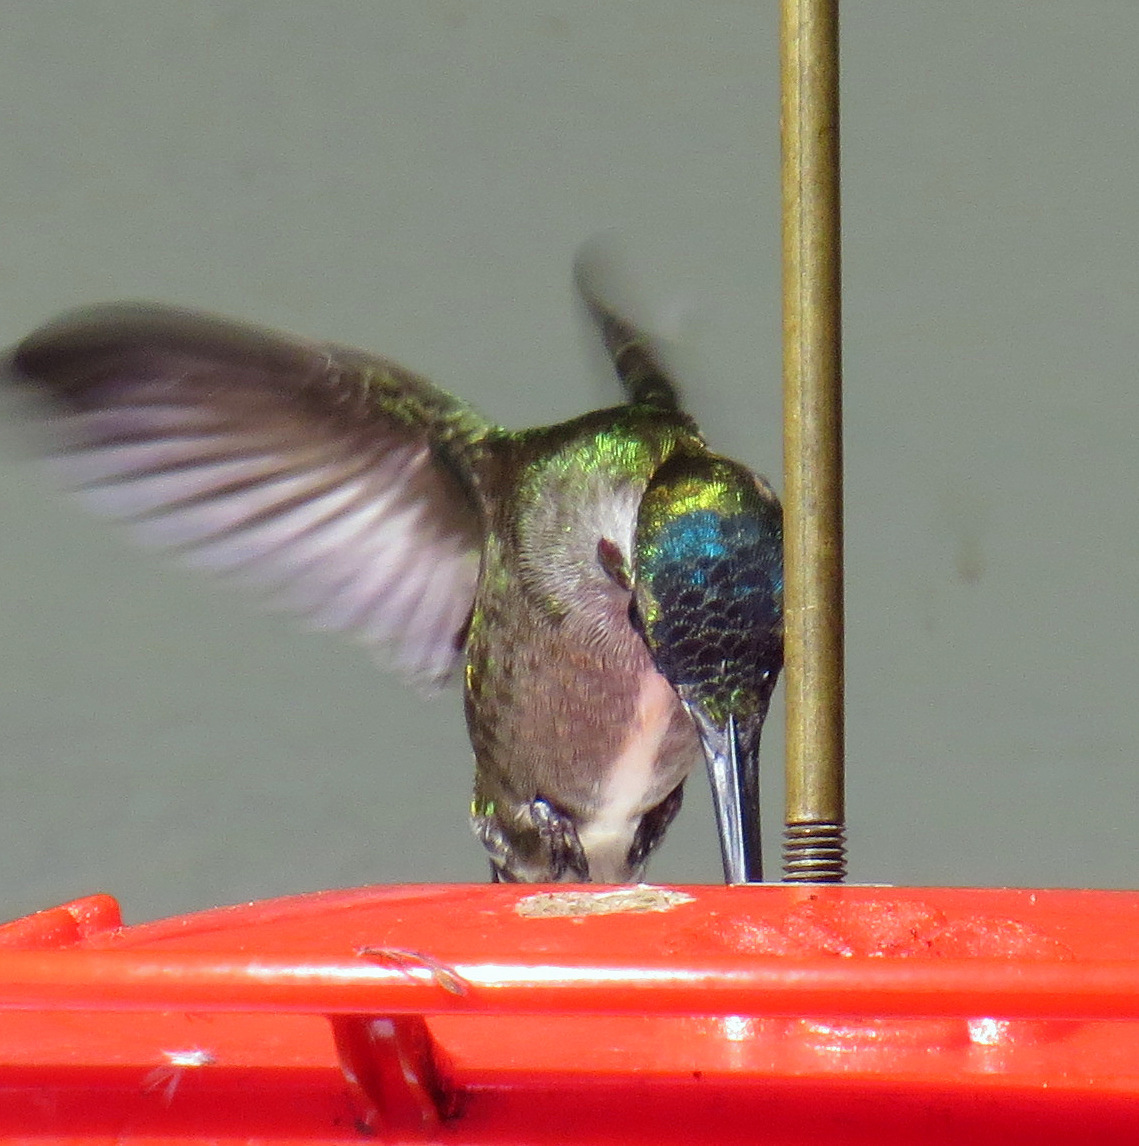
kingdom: Animalia
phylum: Chordata
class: Aves
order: Apodiformes
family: Trochilidae
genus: Heliomaster
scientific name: Heliomaster longirostris
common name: Long-billed starthroat
